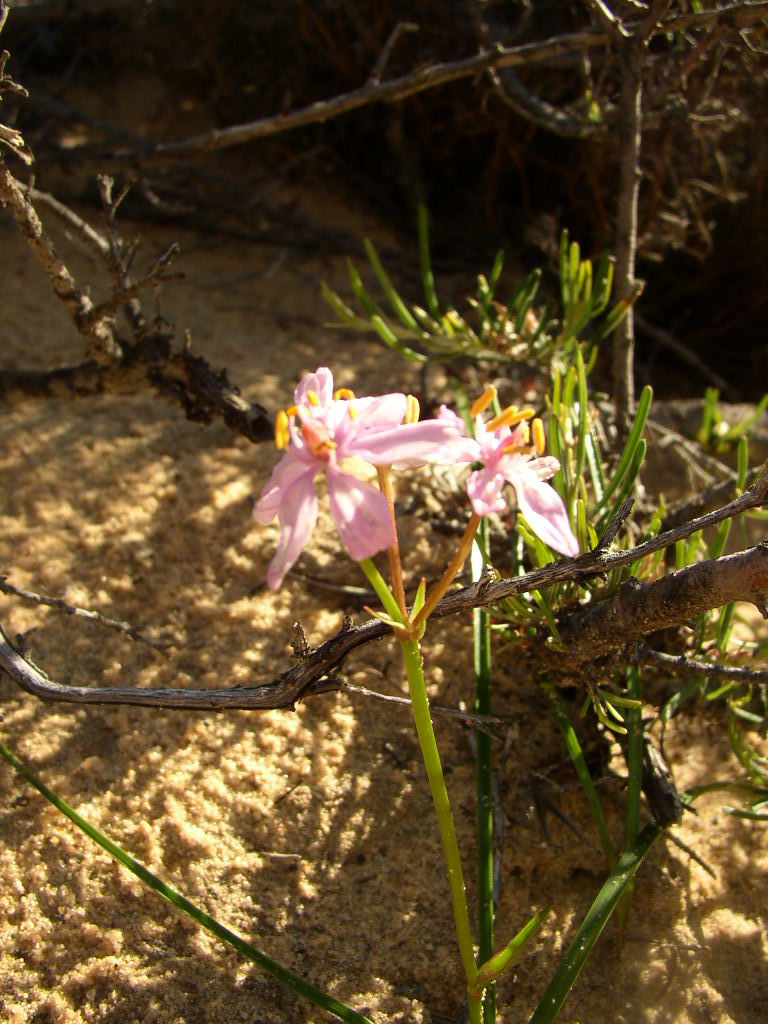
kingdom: Plantae
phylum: Tracheophyta
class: Liliopsida
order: Liliales
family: Colchicaceae
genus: Burchardia
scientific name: Burchardia rosea
